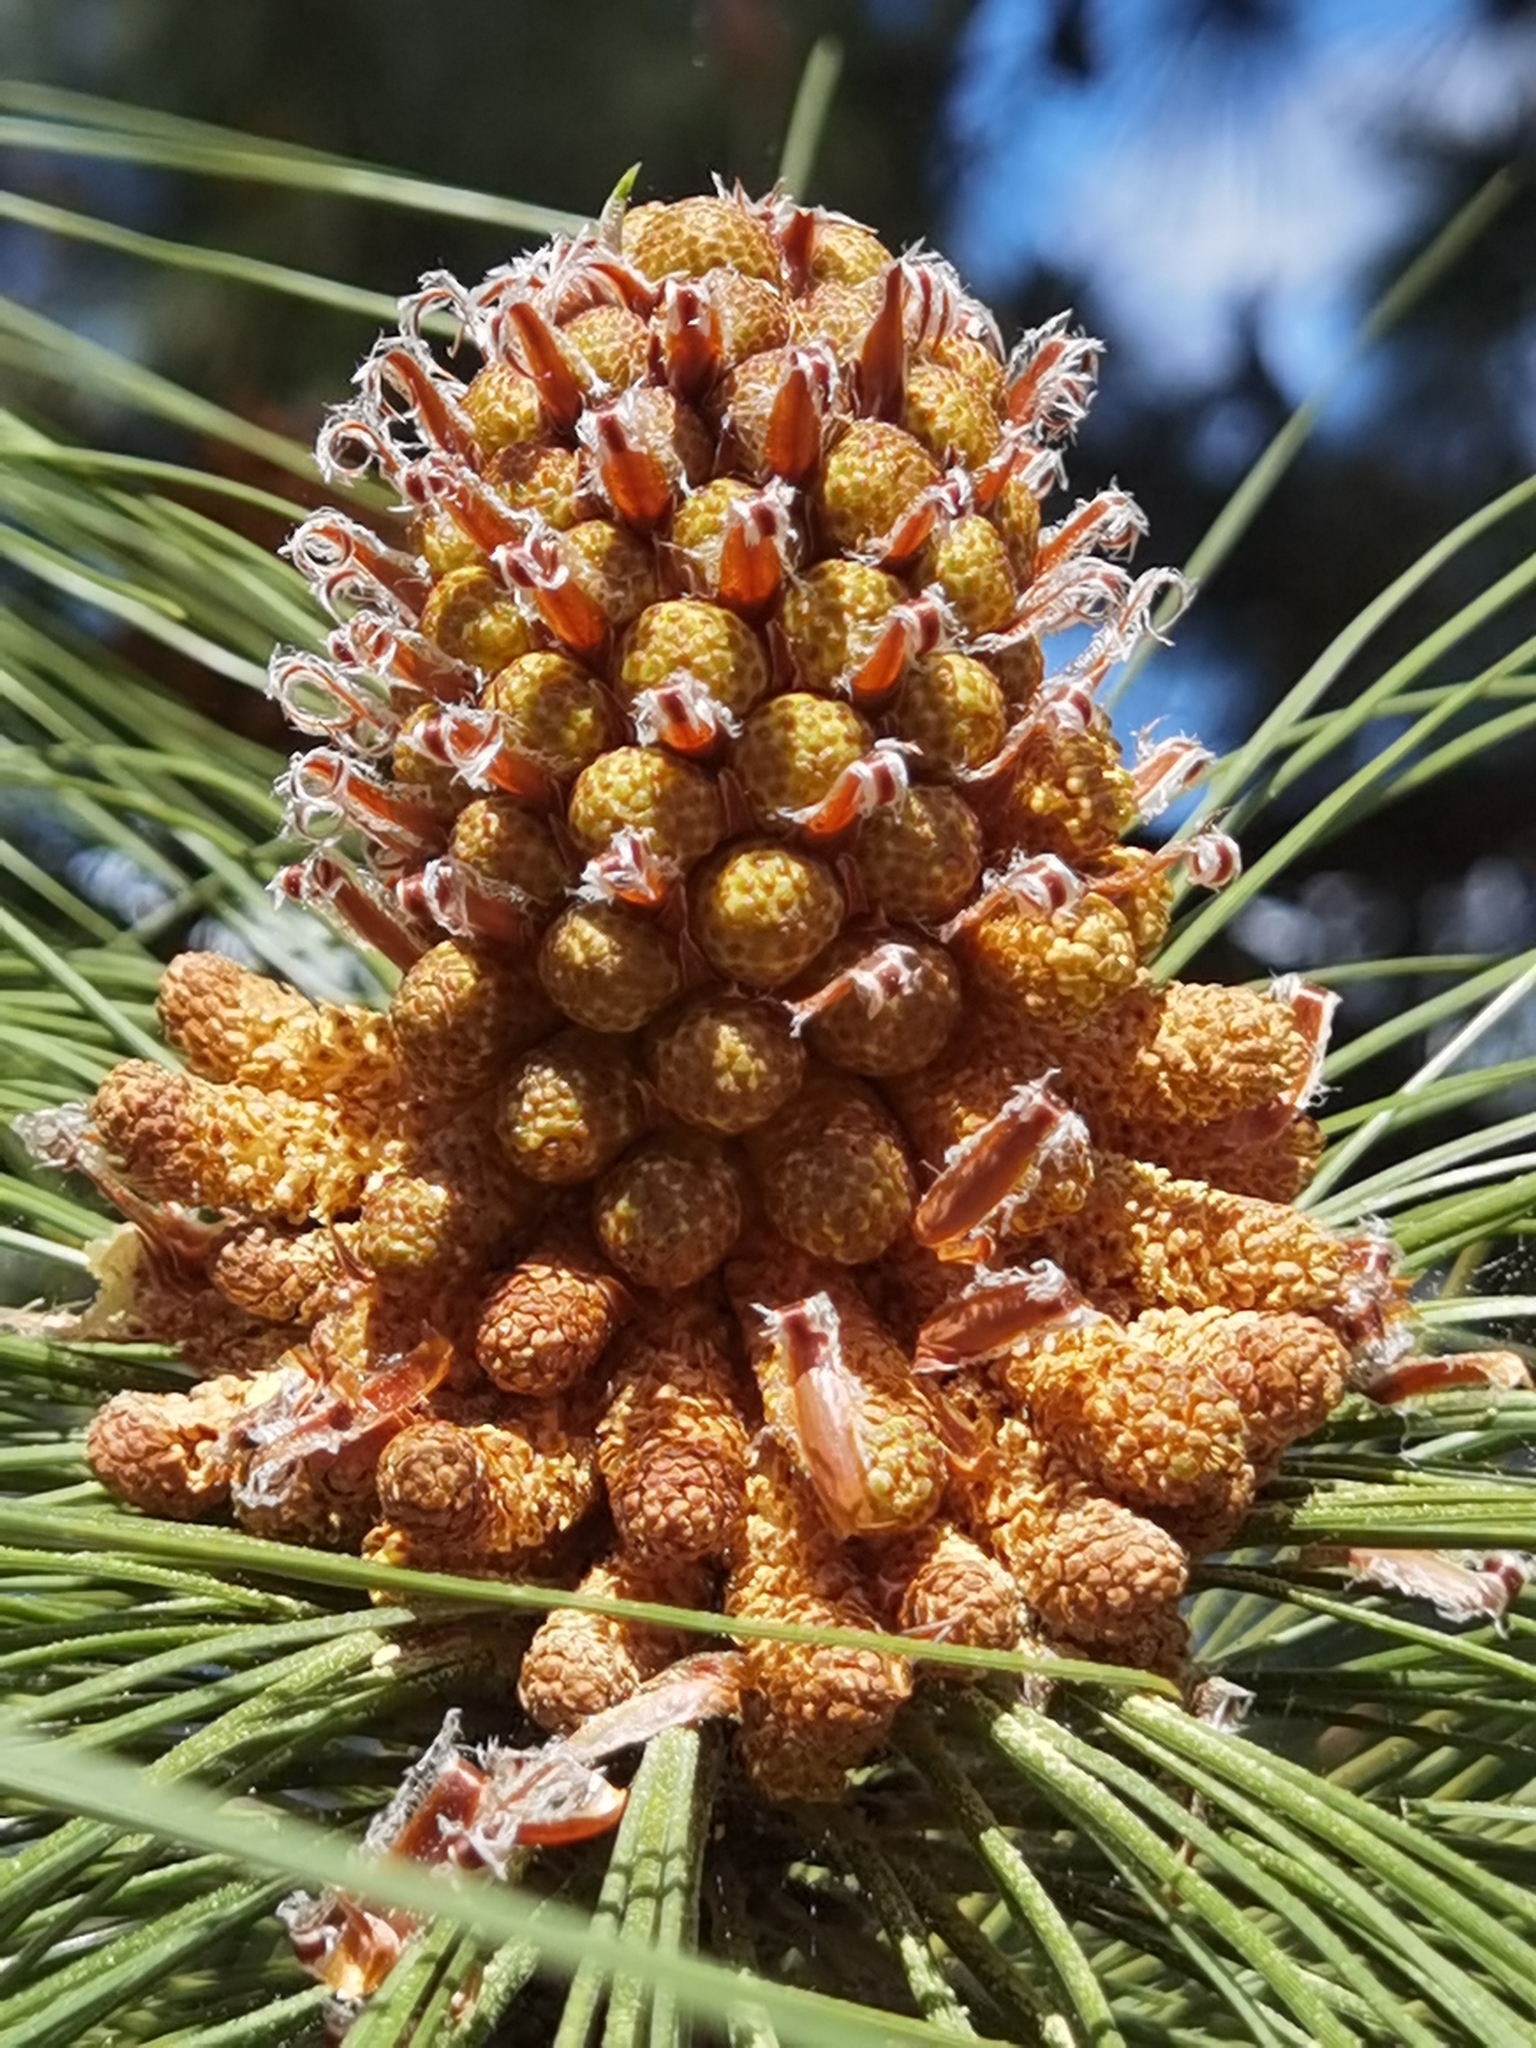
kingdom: Plantae
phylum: Tracheophyta
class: Pinopsida
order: Pinales
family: Pinaceae
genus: Pinus
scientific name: Pinus canariensis
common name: Canary islands pine
